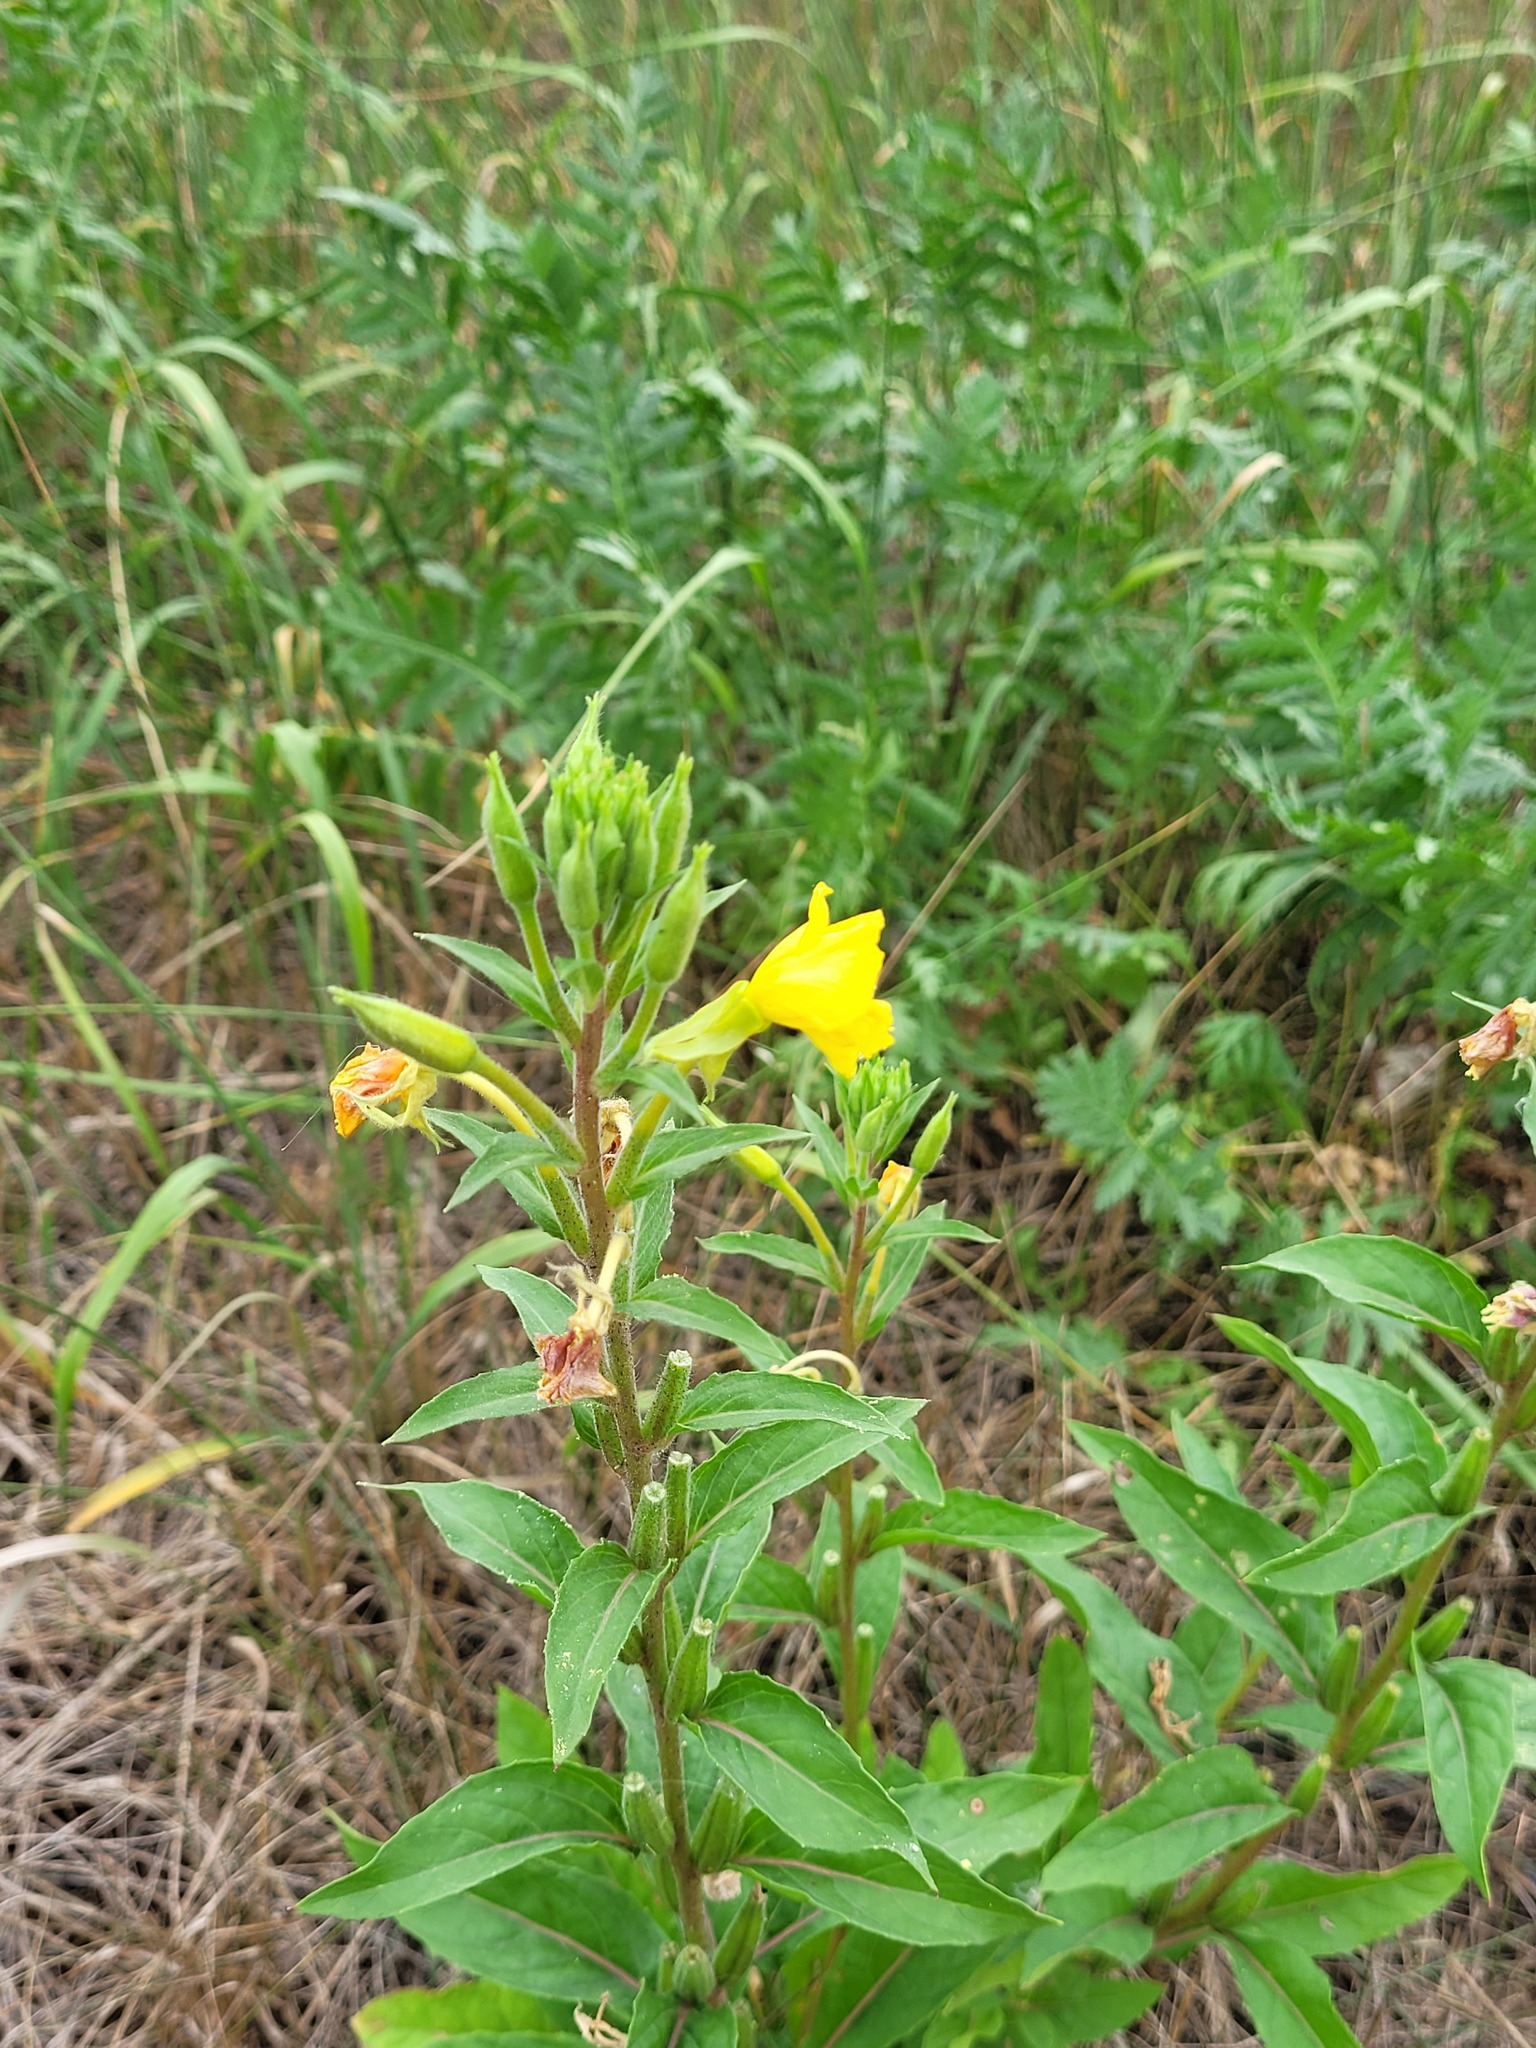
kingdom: Plantae
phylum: Tracheophyta
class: Magnoliopsida
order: Myrtales
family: Onagraceae
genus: Oenothera
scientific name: Oenothera rubricaulis
